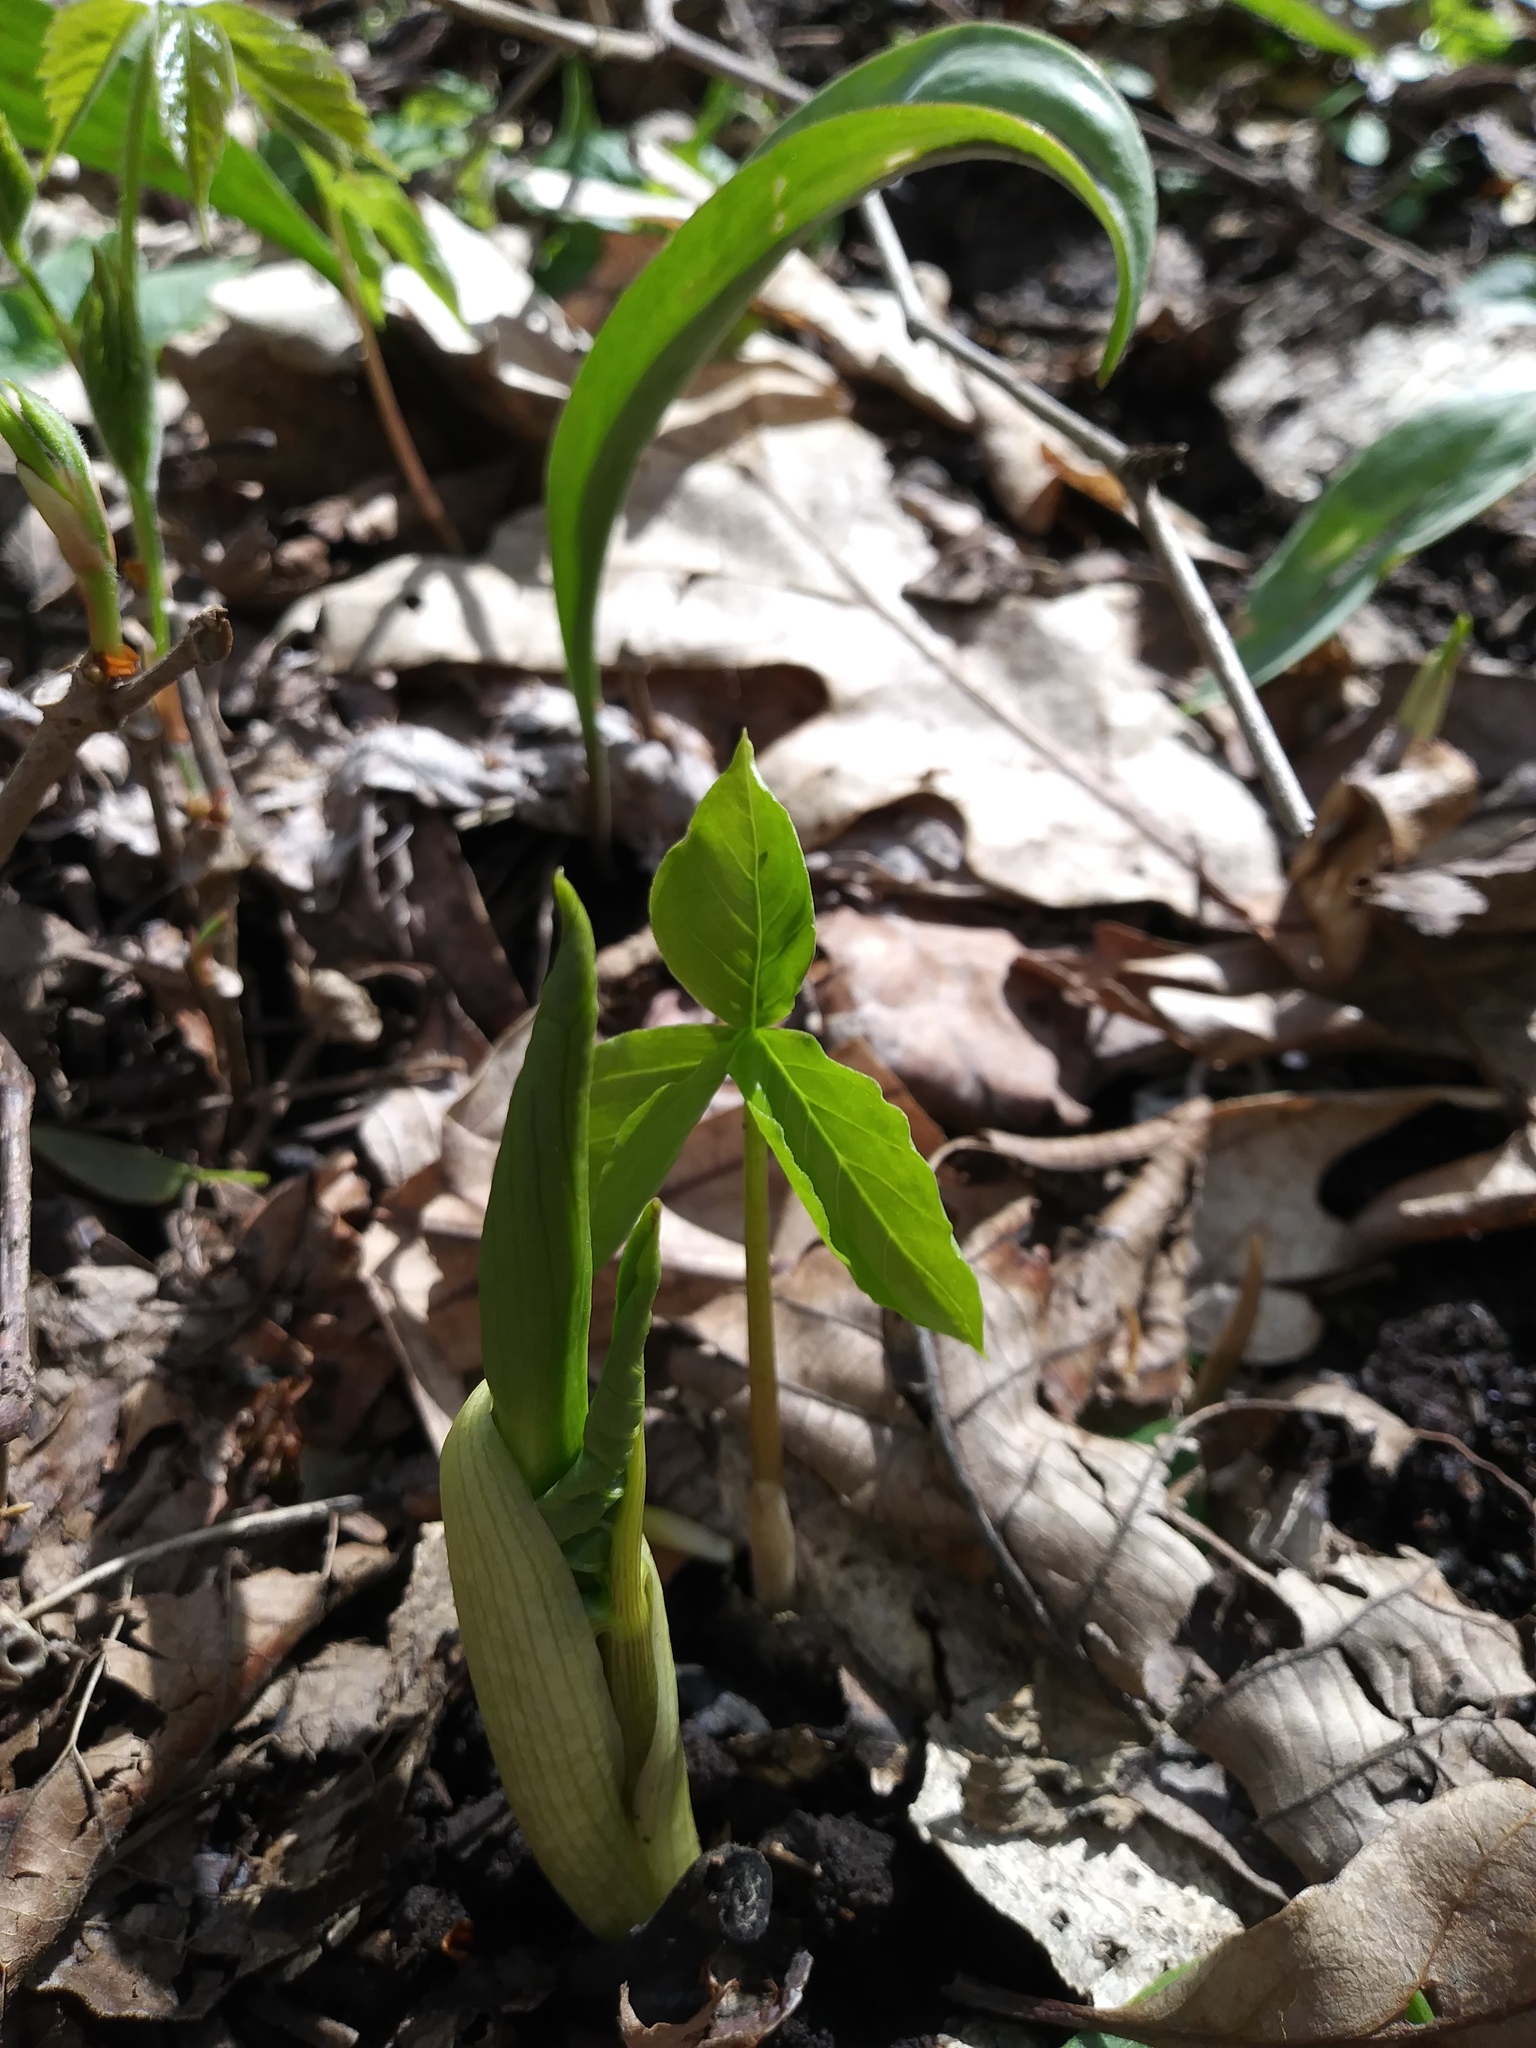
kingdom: Plantae
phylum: Tracheophyta
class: Liliopsida
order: Alismatales
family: Araceae
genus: Arisaema
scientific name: Arisaema triphyllum
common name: Jack-in-the-pulpit
